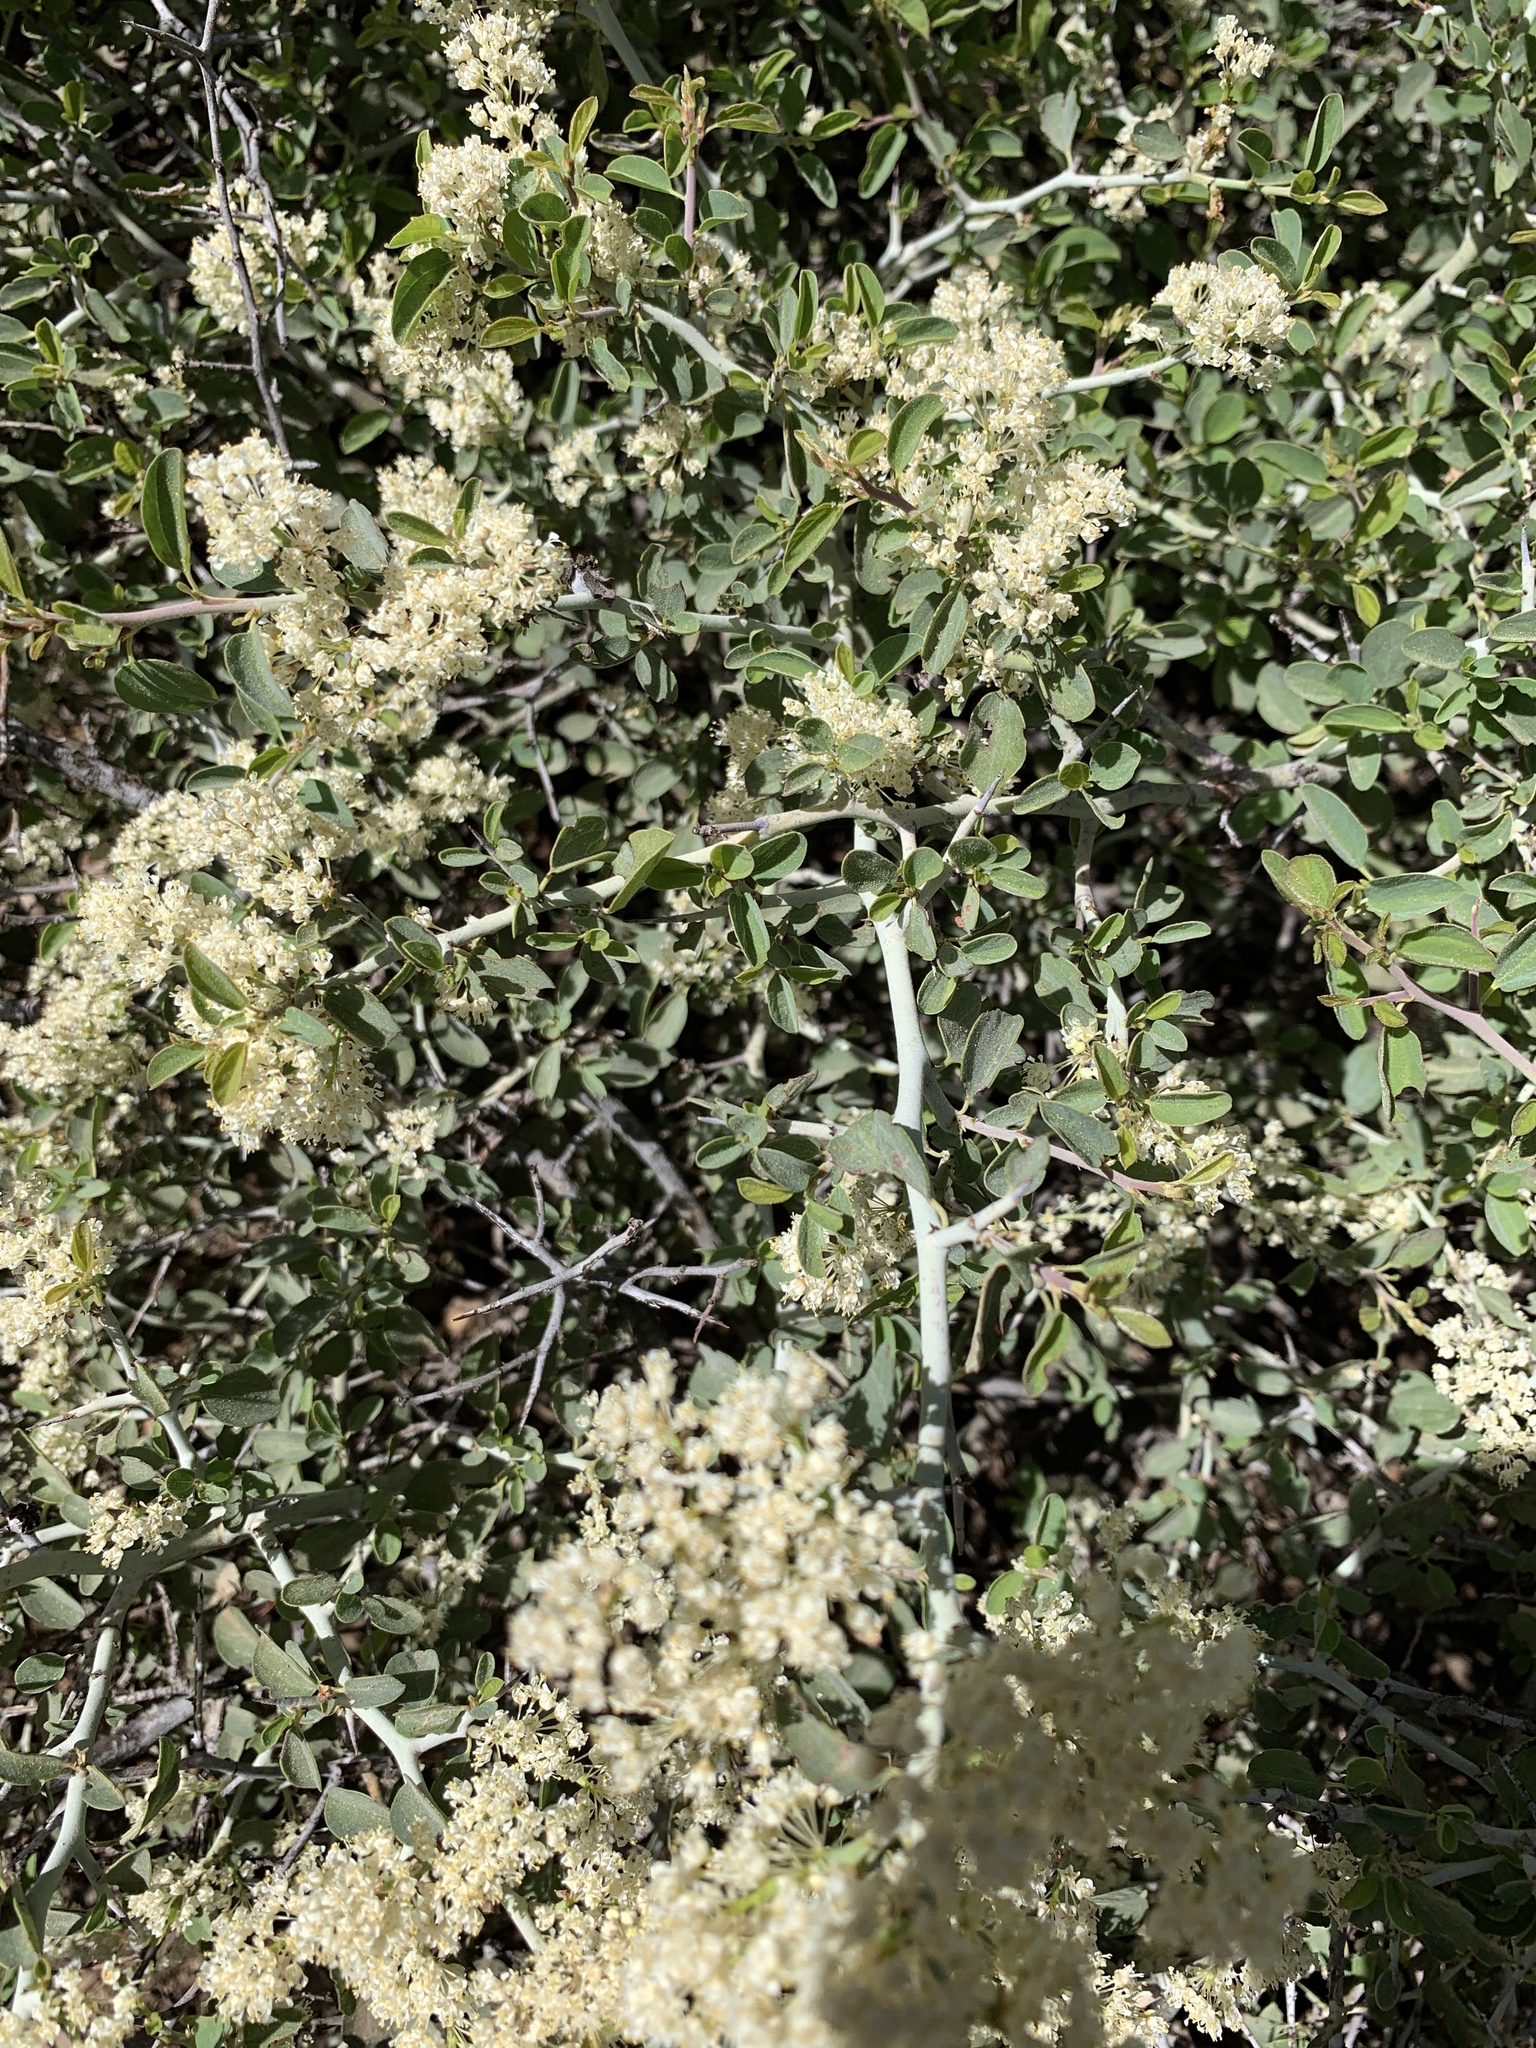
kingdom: Plantae
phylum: Tracheophyta
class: Magnoliopsida
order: Rosales
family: Rhamnaceae
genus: Ceanothus
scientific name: Ceanothus cordulatus
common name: Mountain whitethorn
